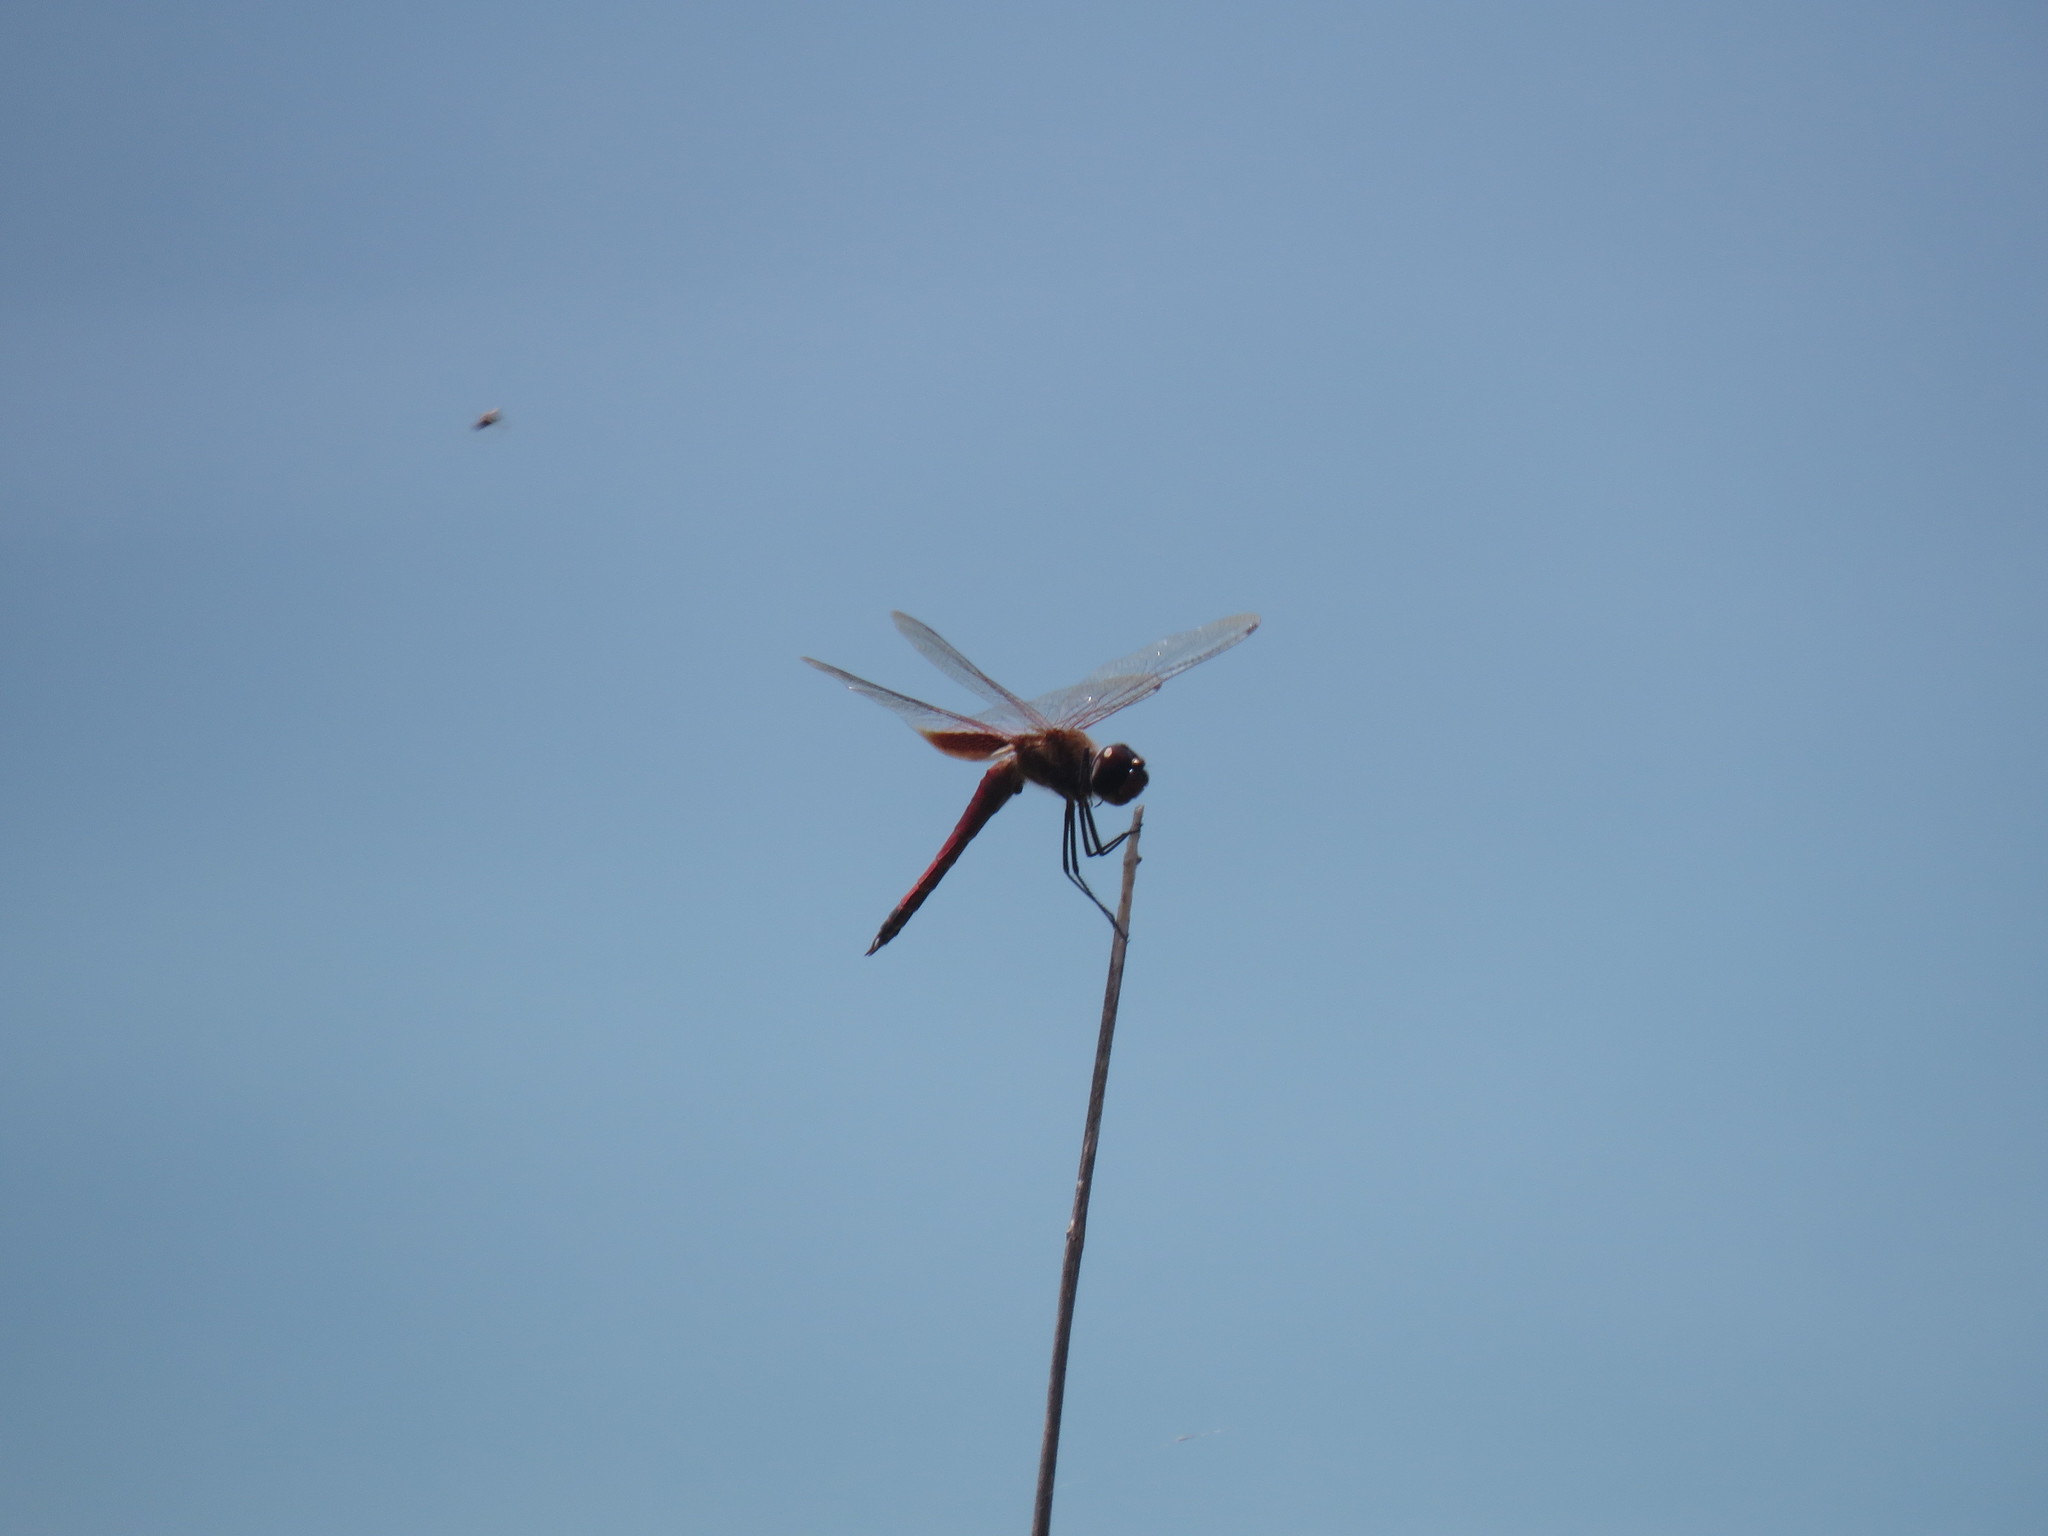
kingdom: Animalia
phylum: Arthropoda
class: Insecta
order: Odonata
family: Libellulidae
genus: Tramea
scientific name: Tramea darwini
